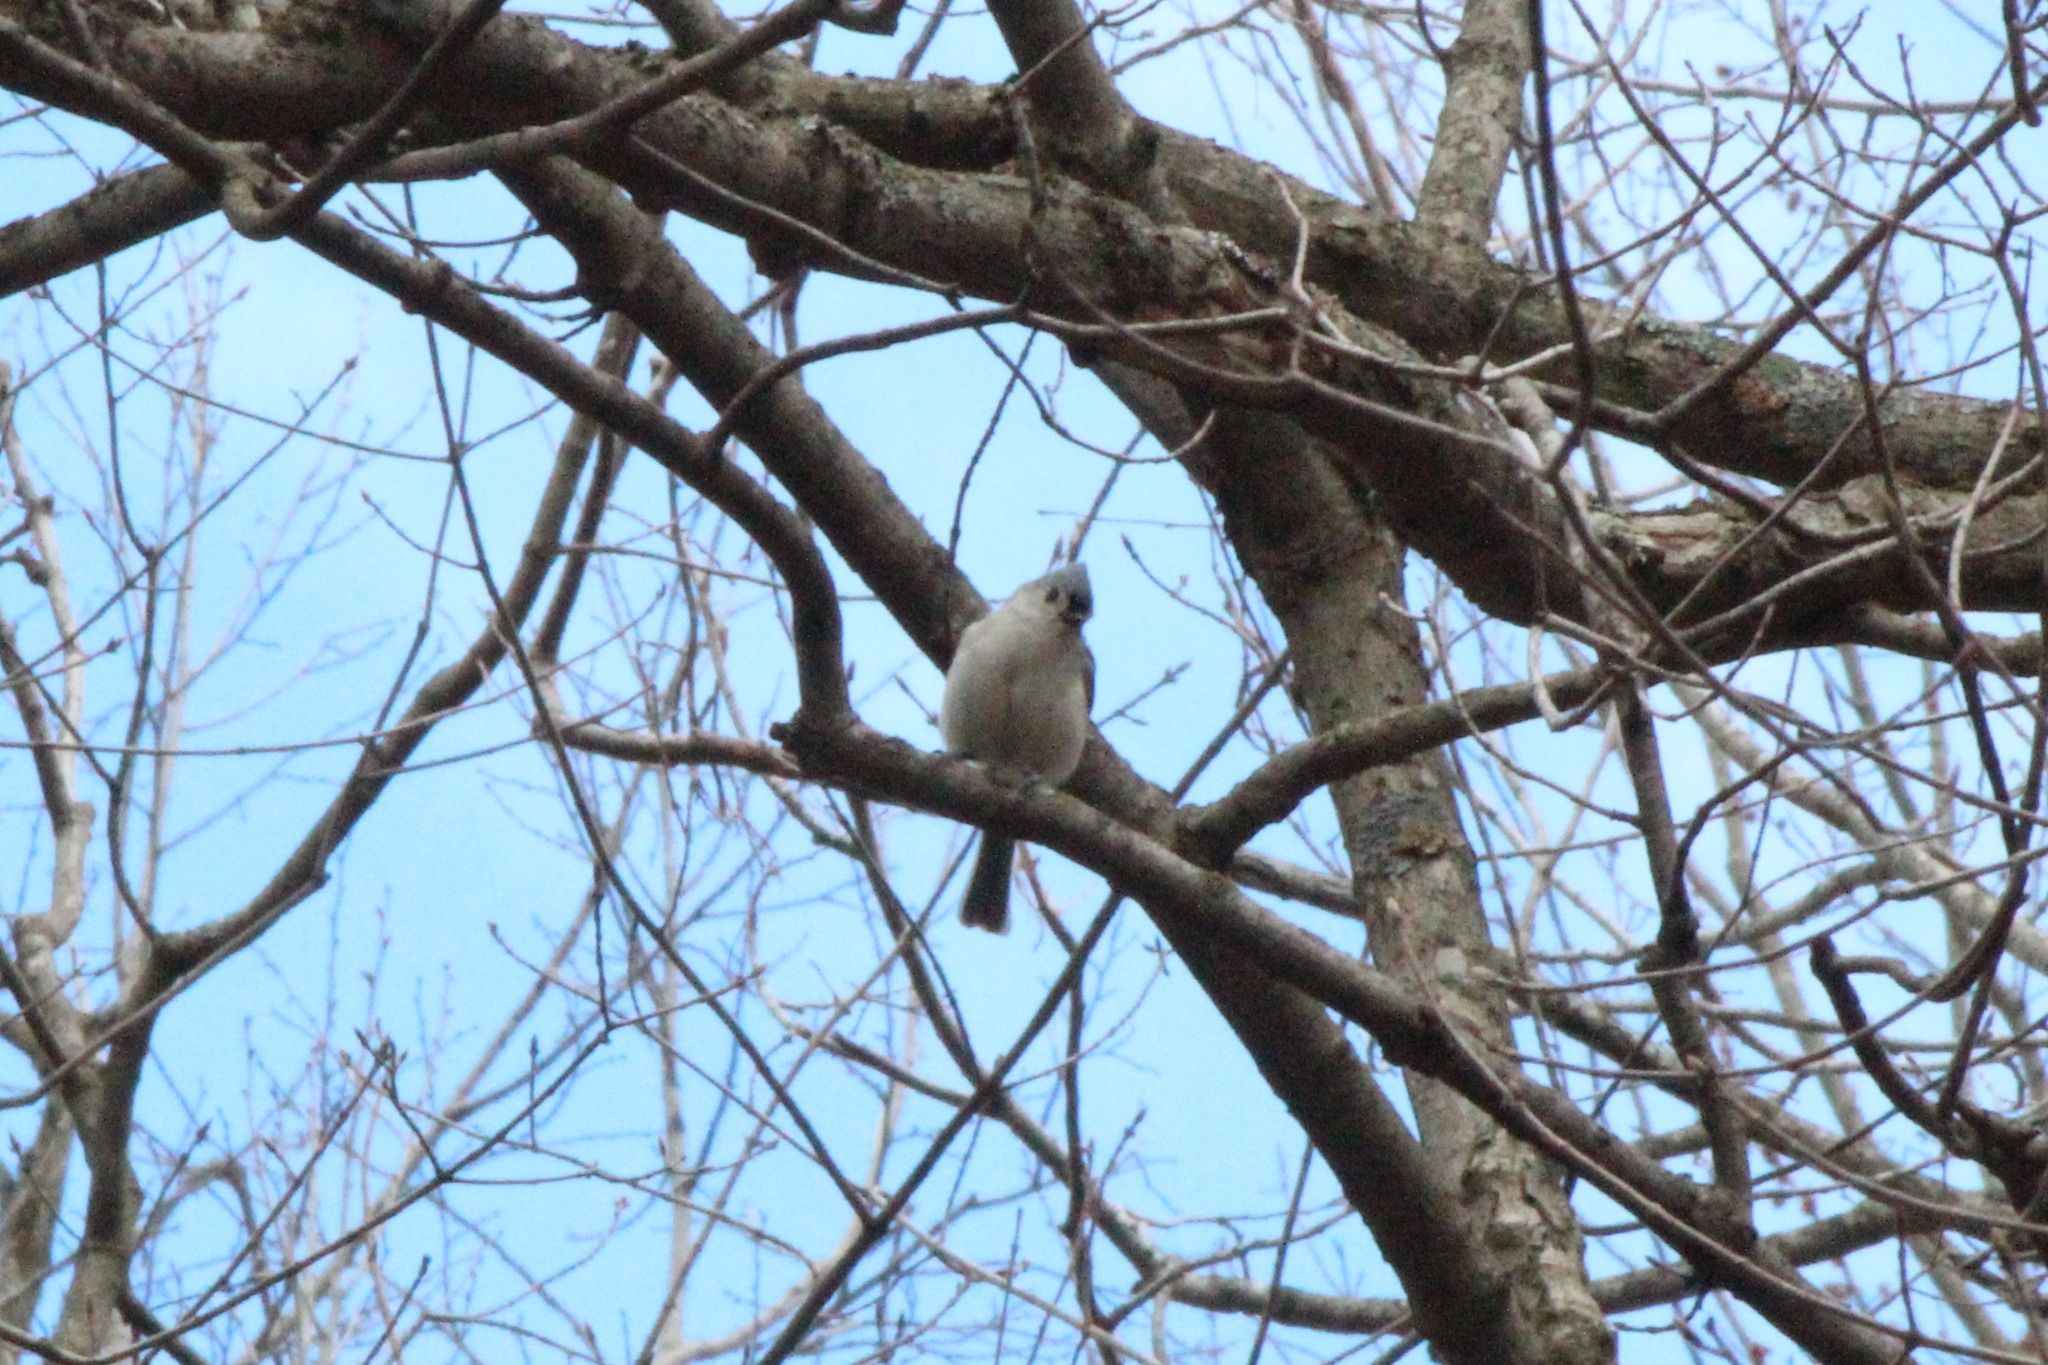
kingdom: Animalia
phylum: Chordata
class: Aves
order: Passeriformes
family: Paridae
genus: Baeolophus
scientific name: Baeolophus bicolor
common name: Tufted titmouse
